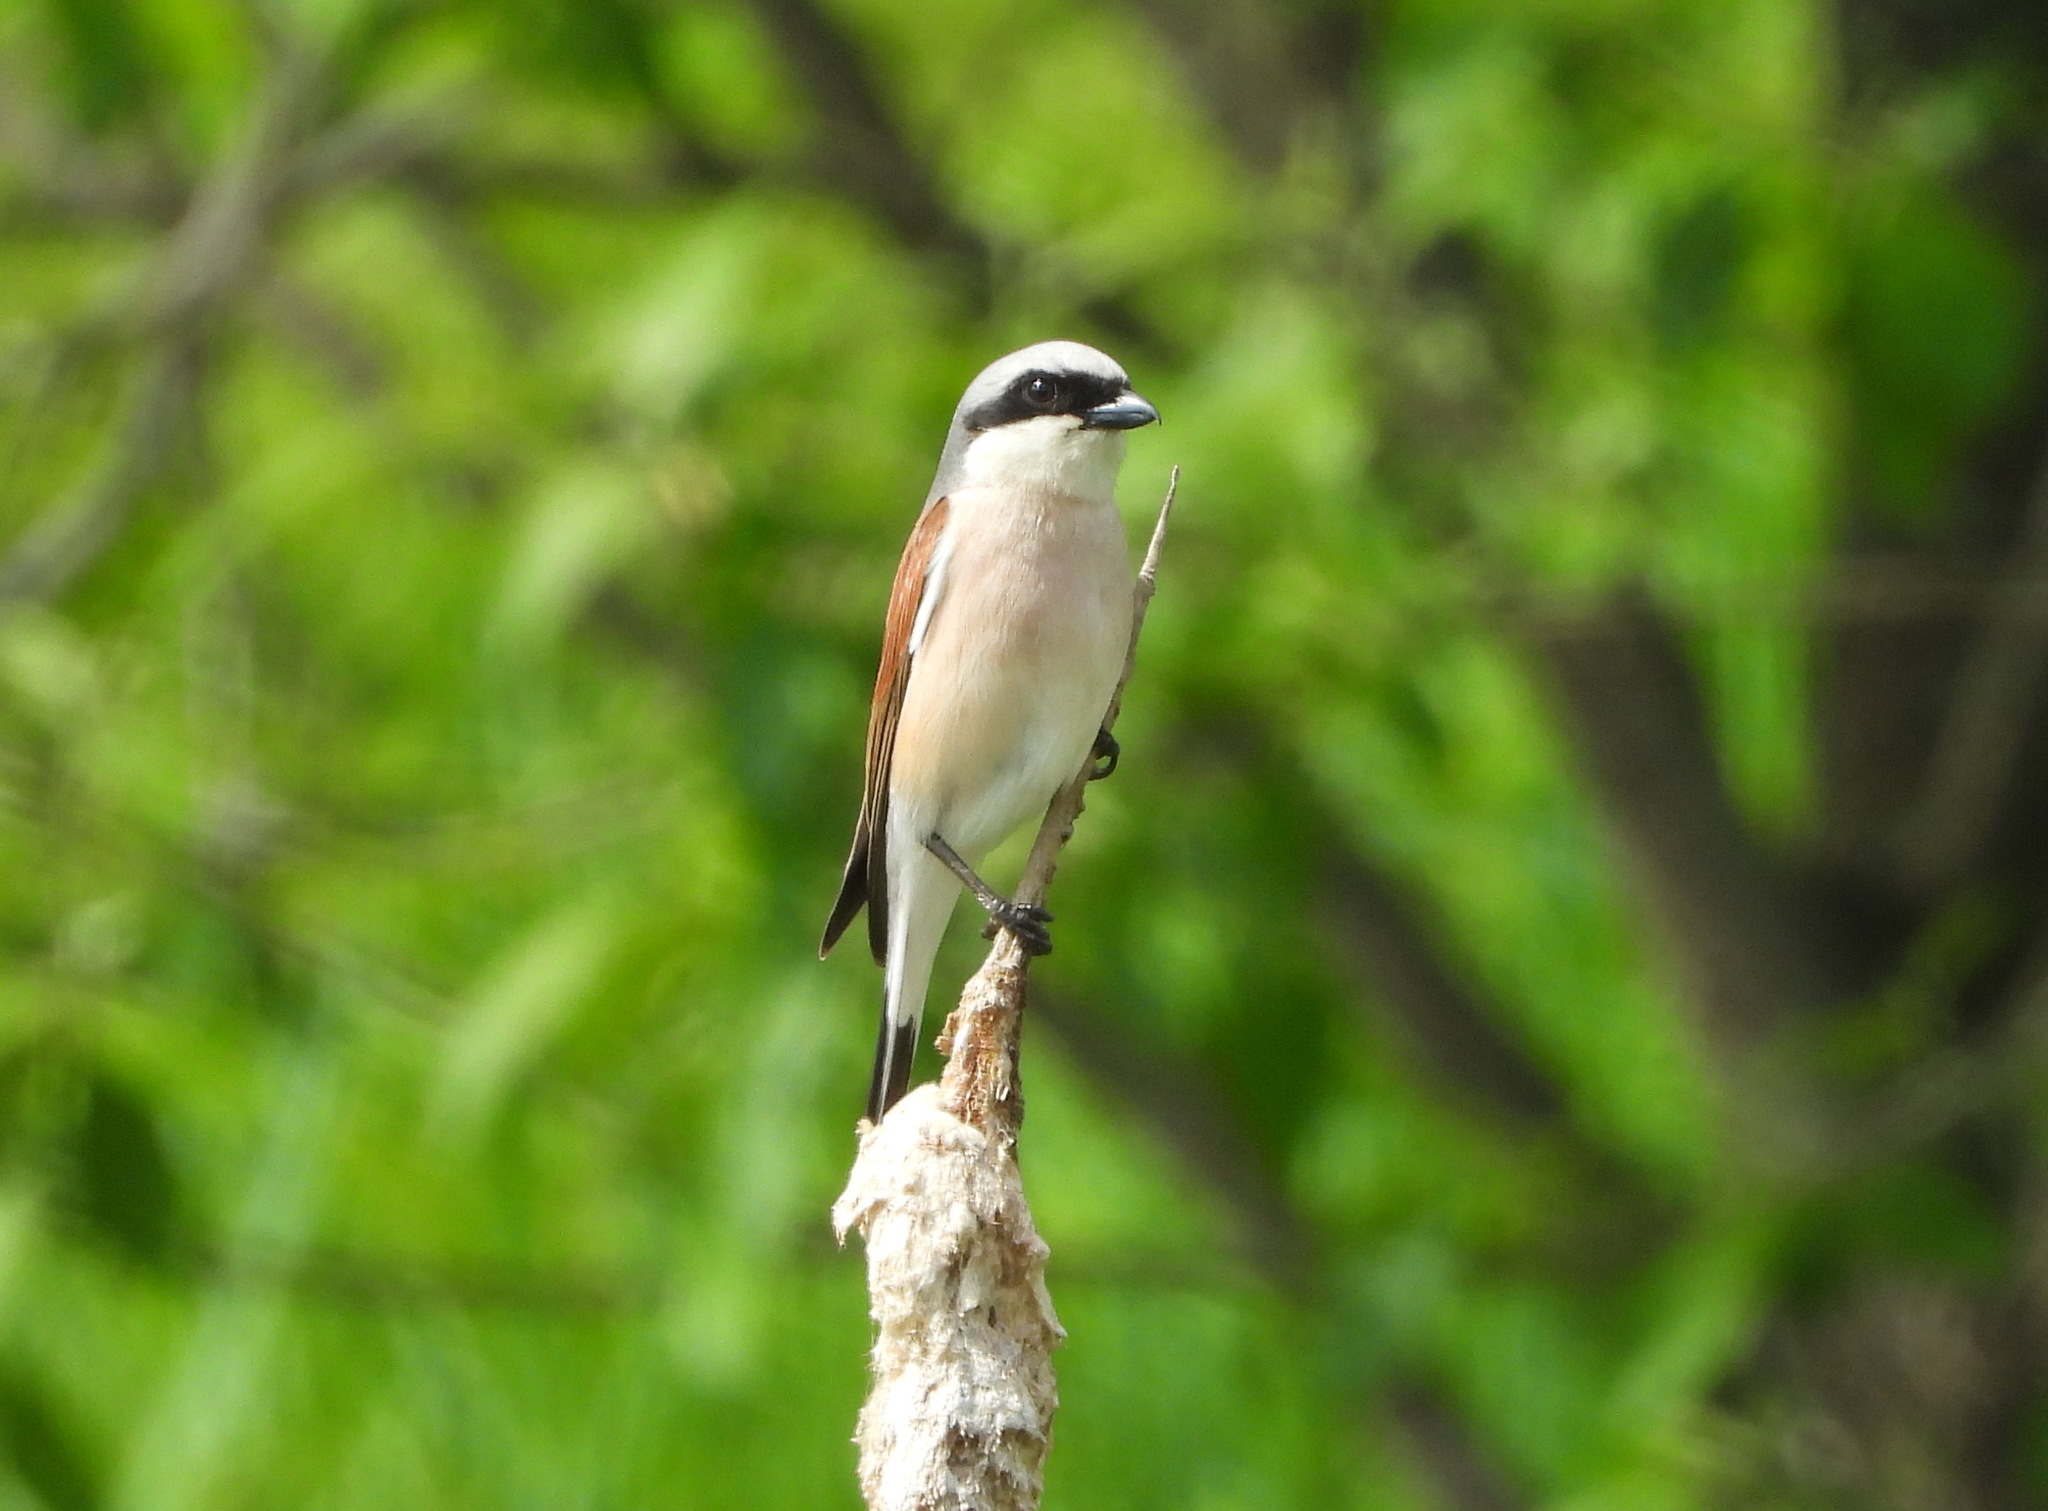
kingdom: Animalia
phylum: Chordata
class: Aves
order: Passeriformes
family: Laniidae
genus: Lanius
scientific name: Lanius collurio
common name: Red-backed shrike
